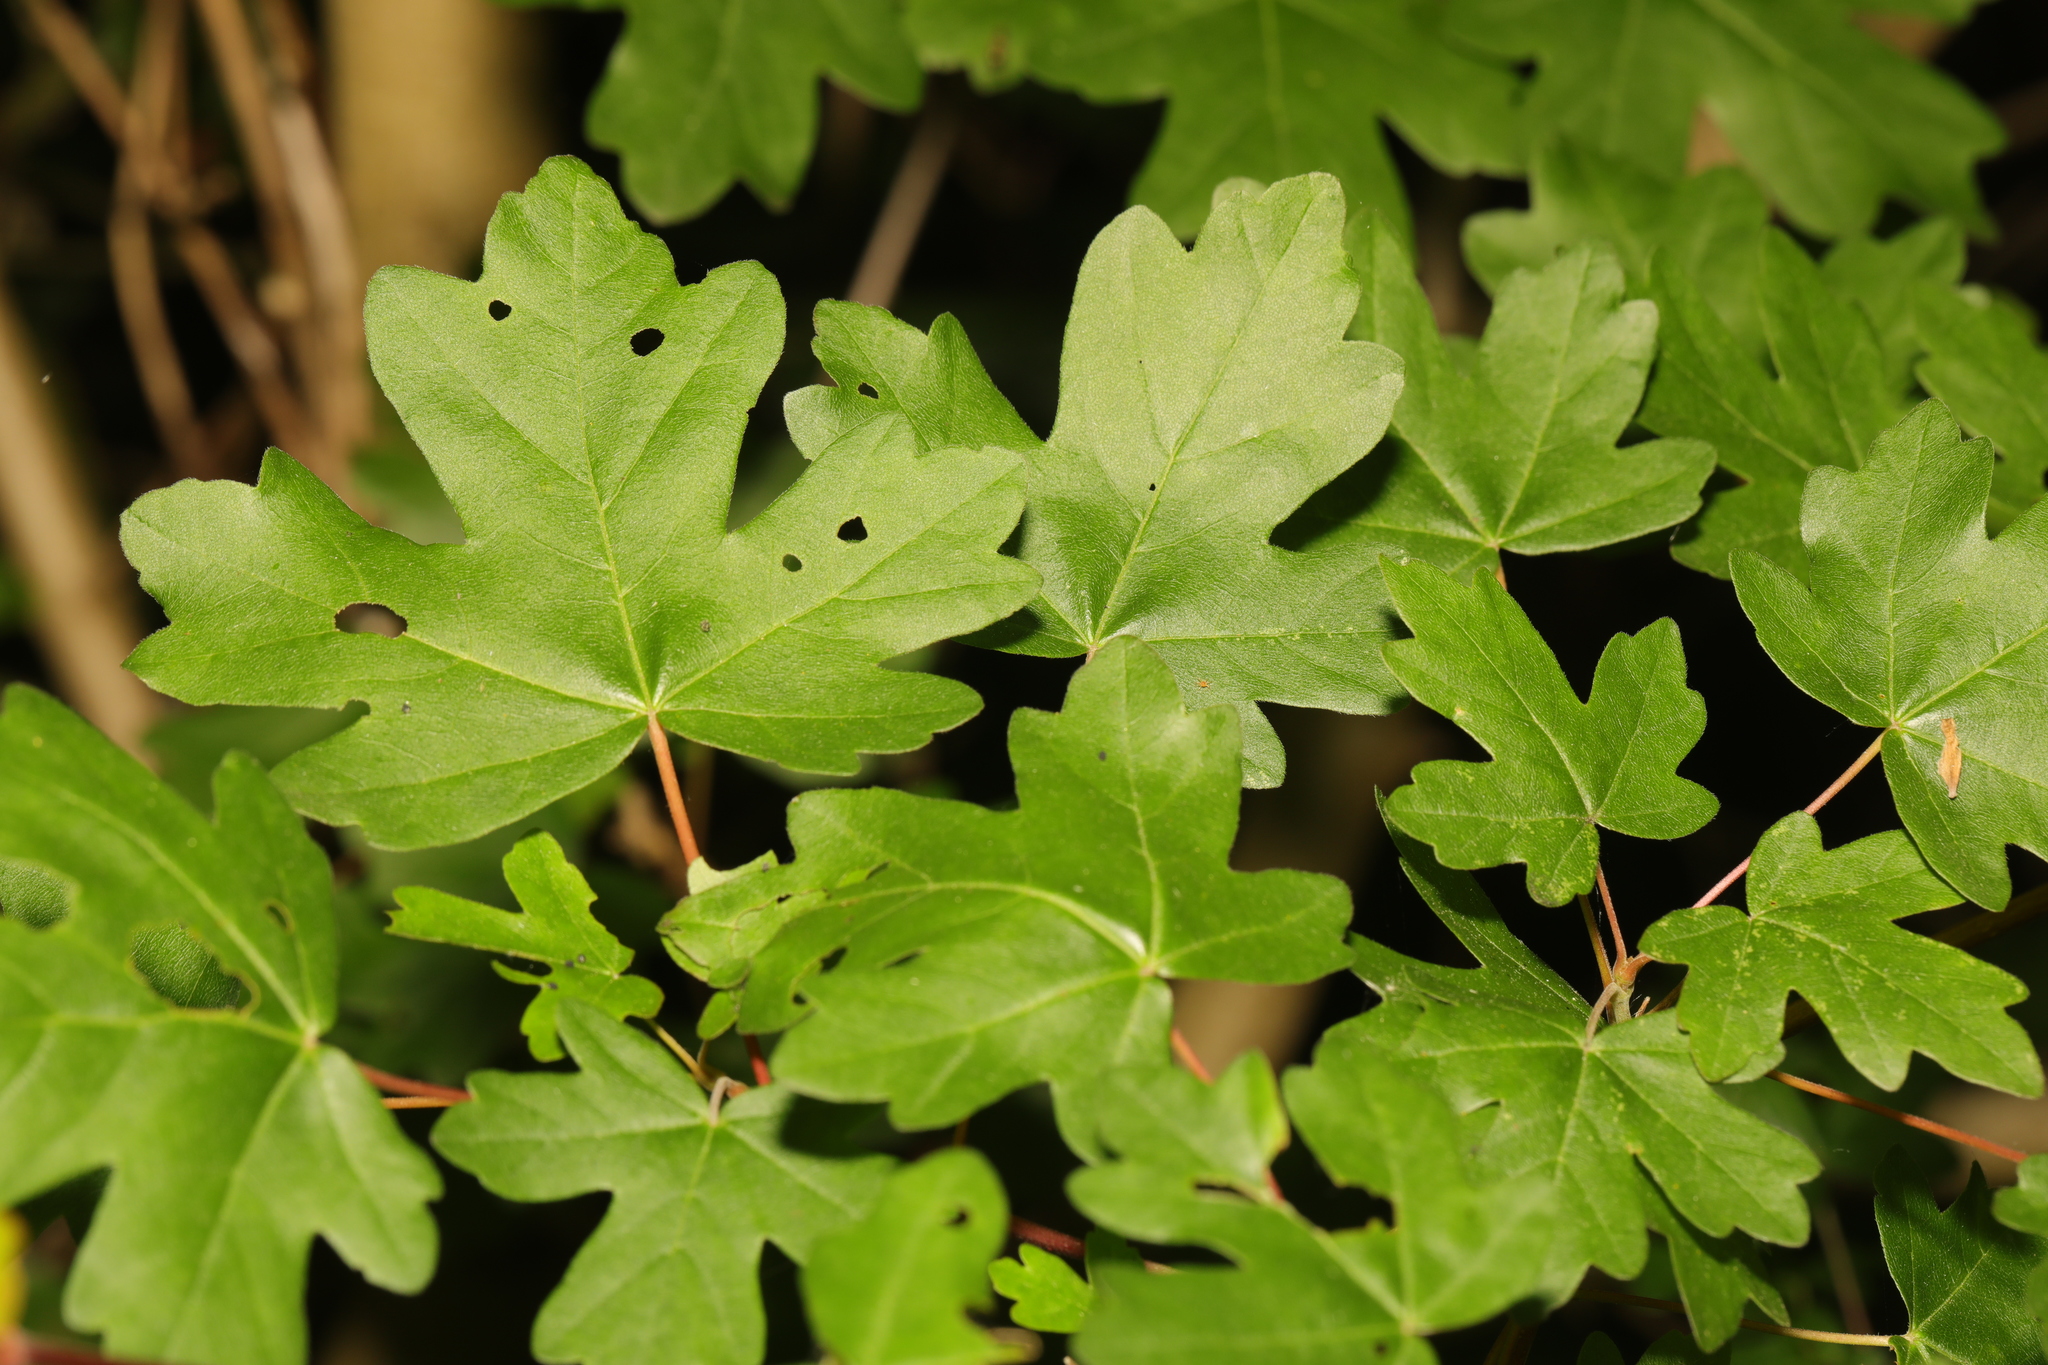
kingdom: Plantae
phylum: Tracheophyta
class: Magnoliopsida
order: Sapindales
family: Sapindaceae
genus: Acer
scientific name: Acer campestre
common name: Field maple
